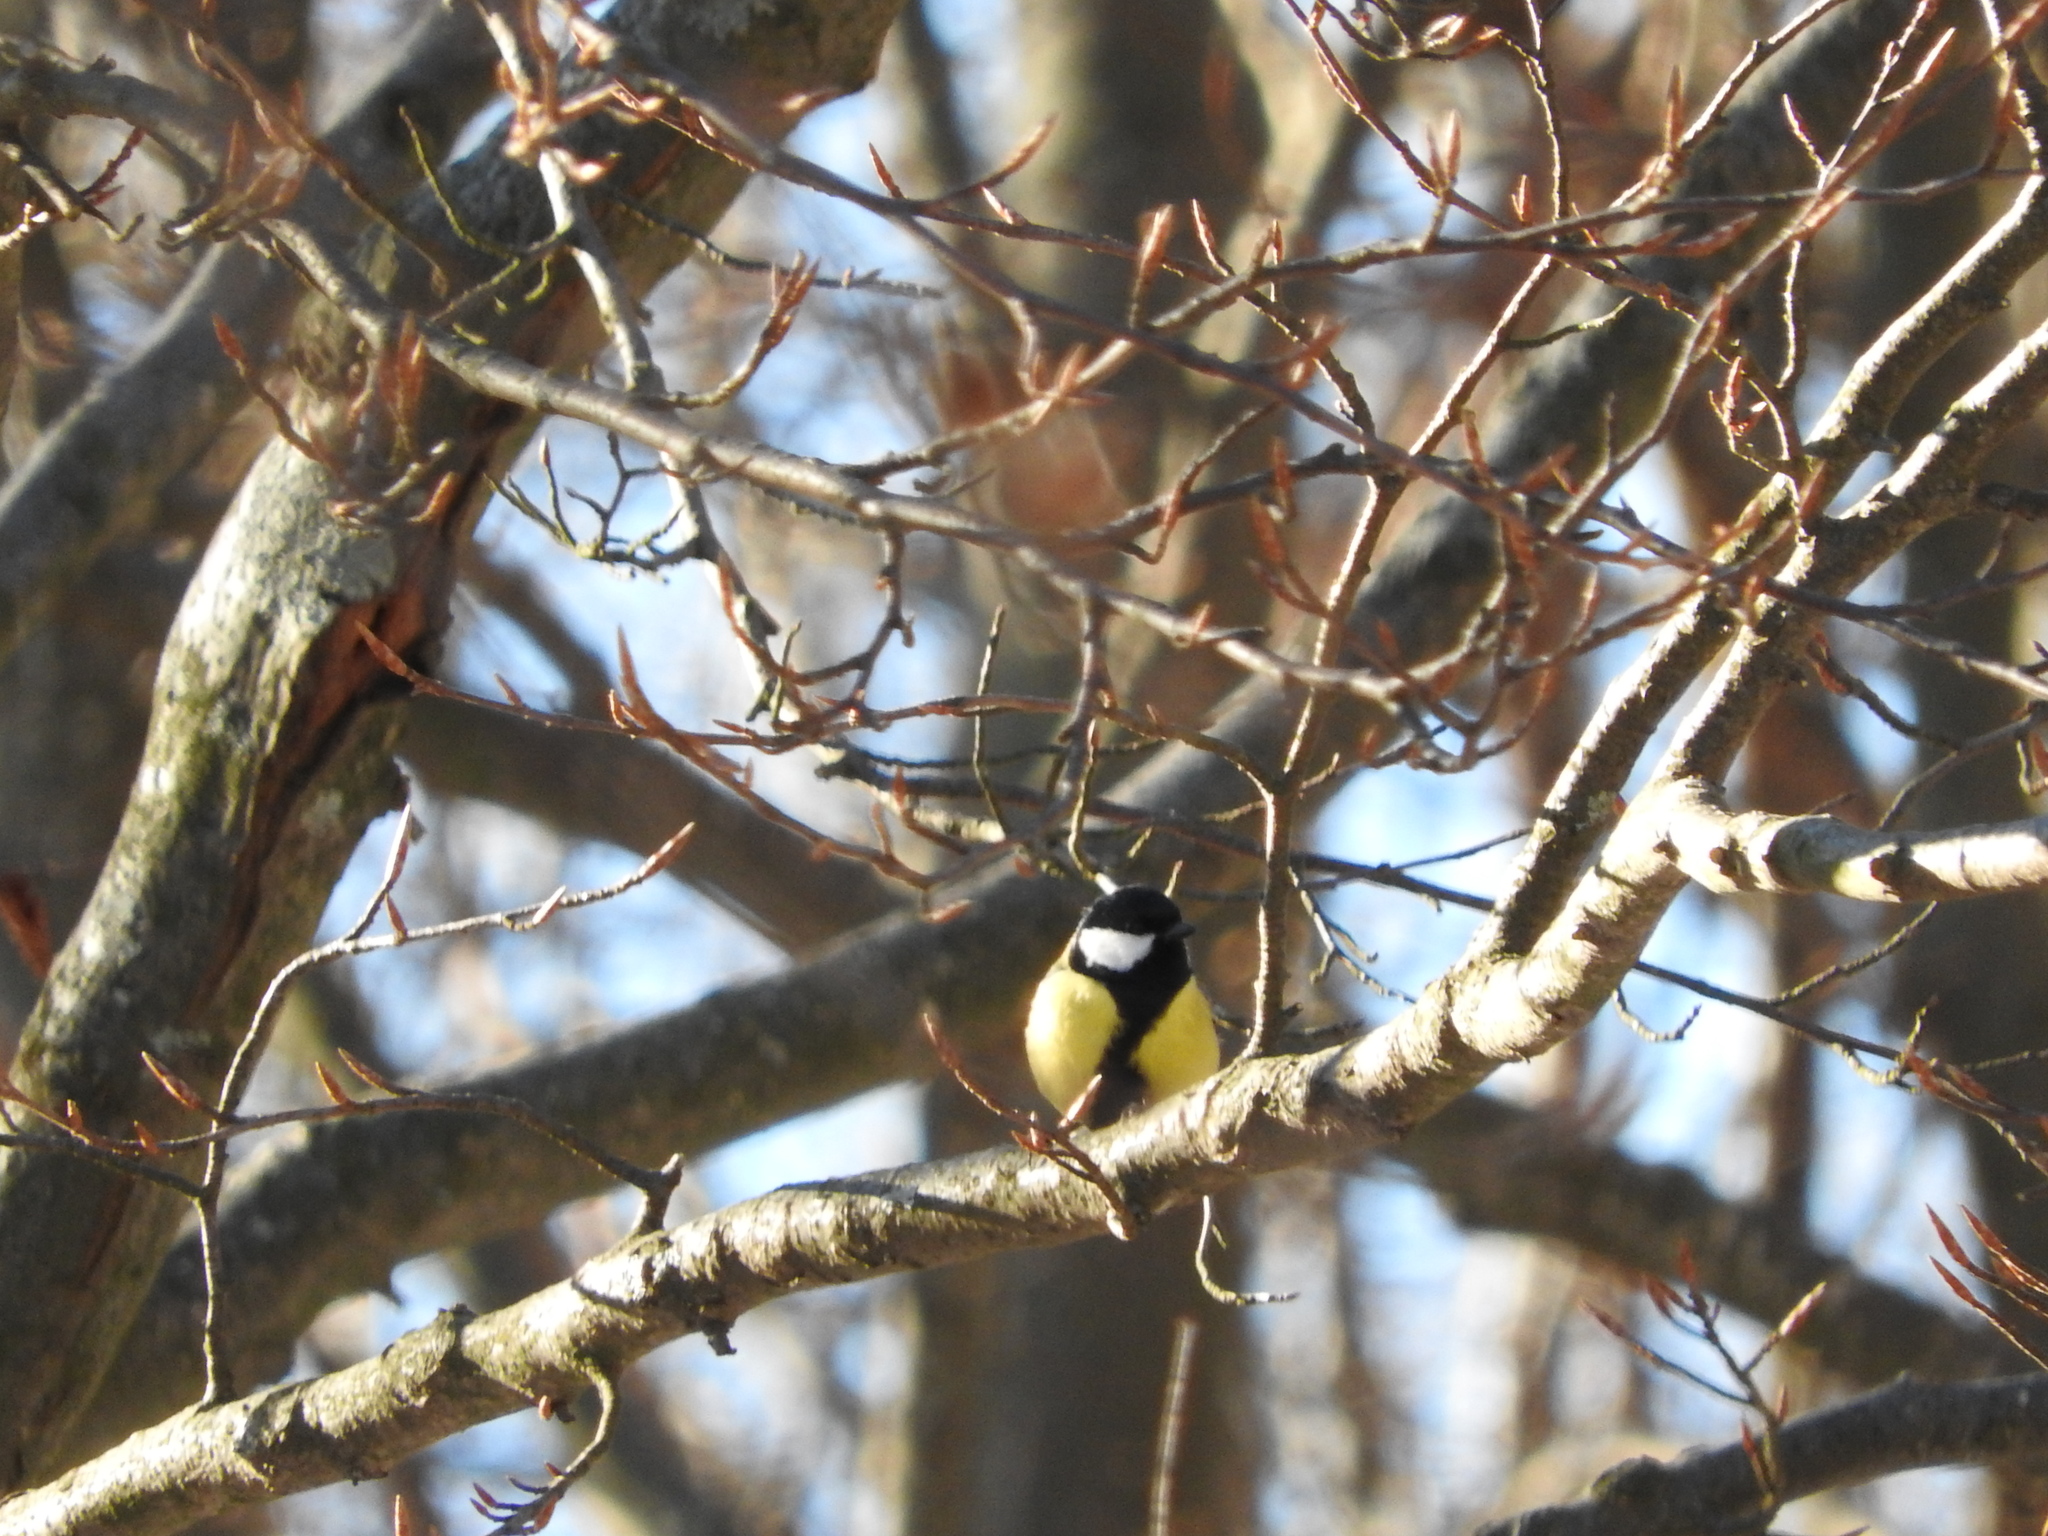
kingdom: Animalia
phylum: Chordata
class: Aves
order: Passeriformes
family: Paridae
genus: Parus
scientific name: Parus major
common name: Great tit
